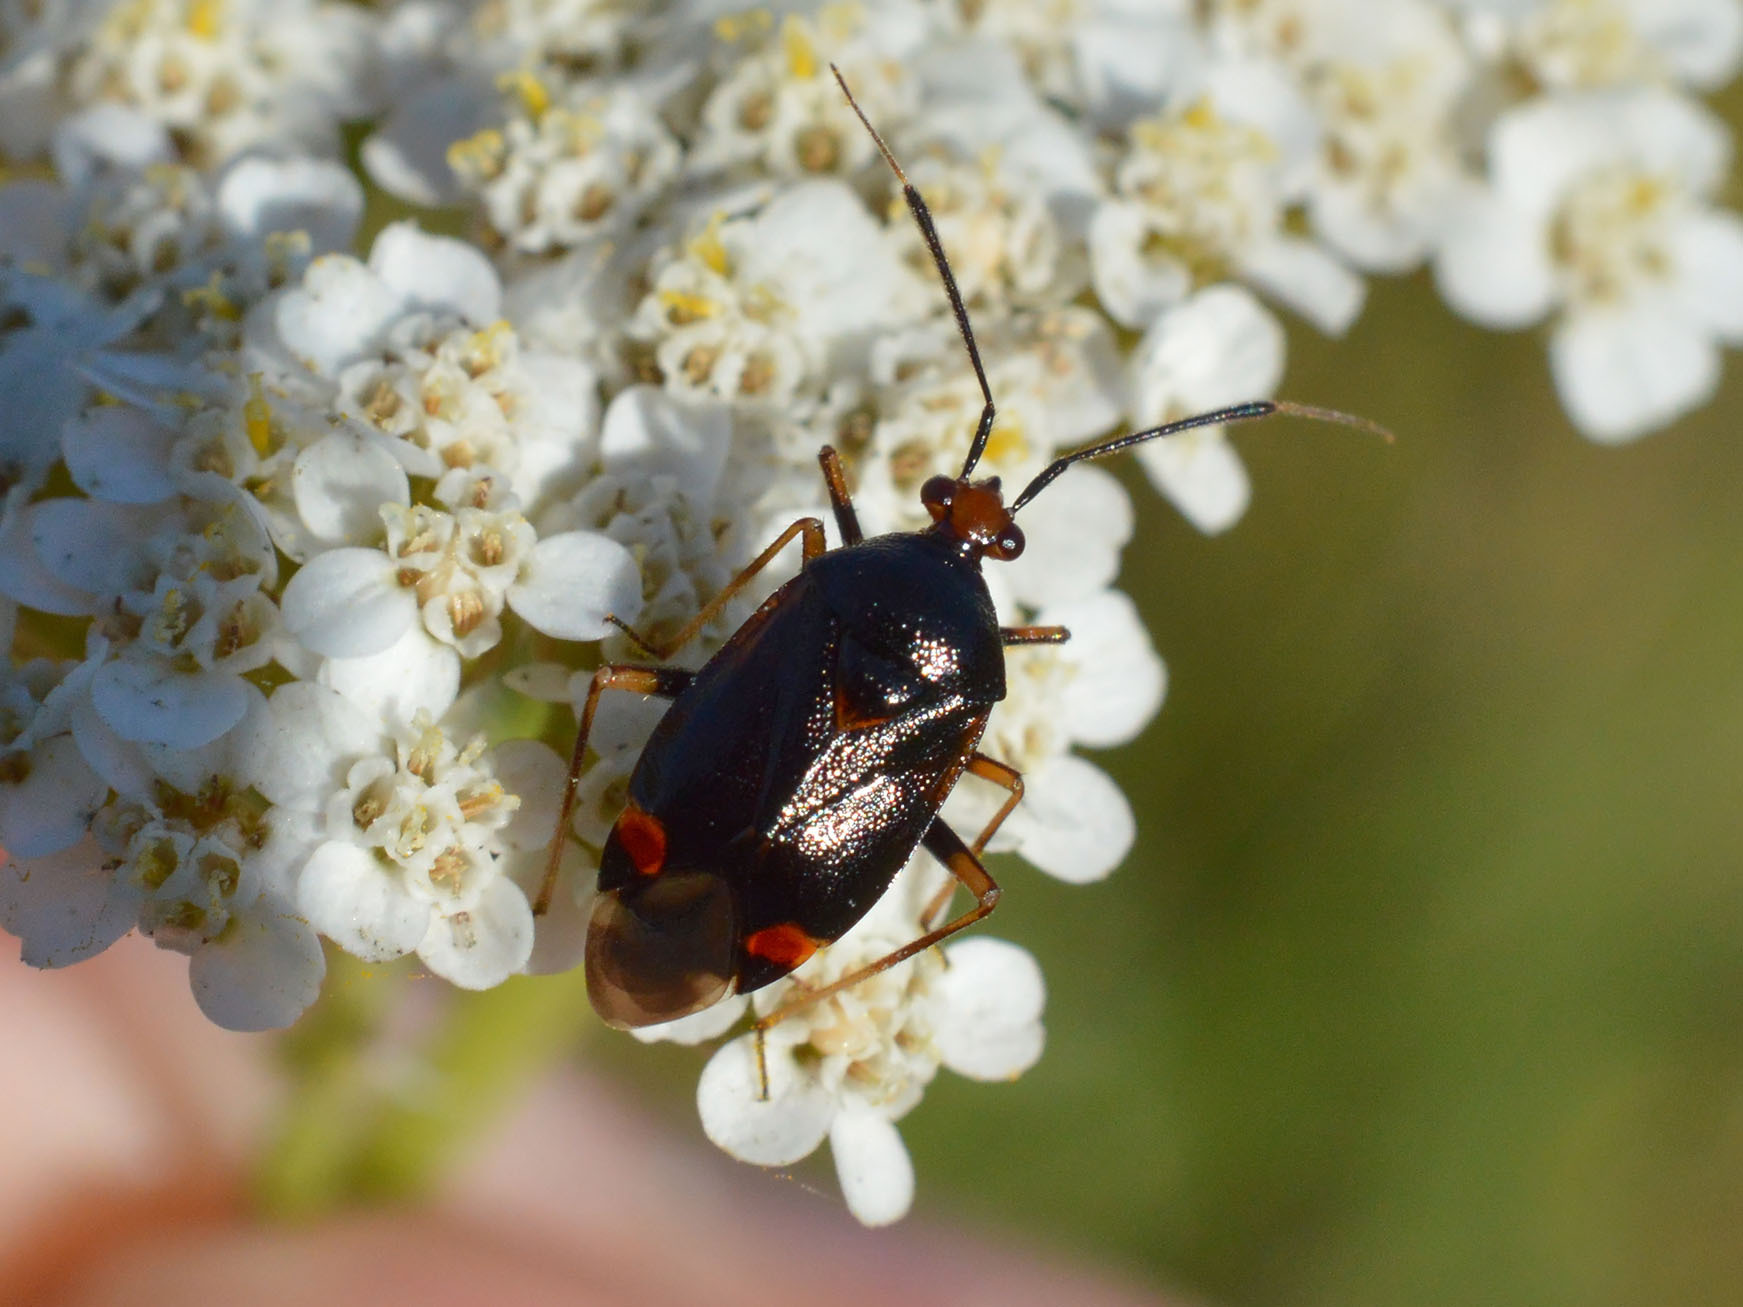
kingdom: Animalia
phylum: Arthropoda
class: Insecta
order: Hemiptera
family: Miridae
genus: Deraeocoris
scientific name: Deraeocoris ruber
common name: Plant bug
